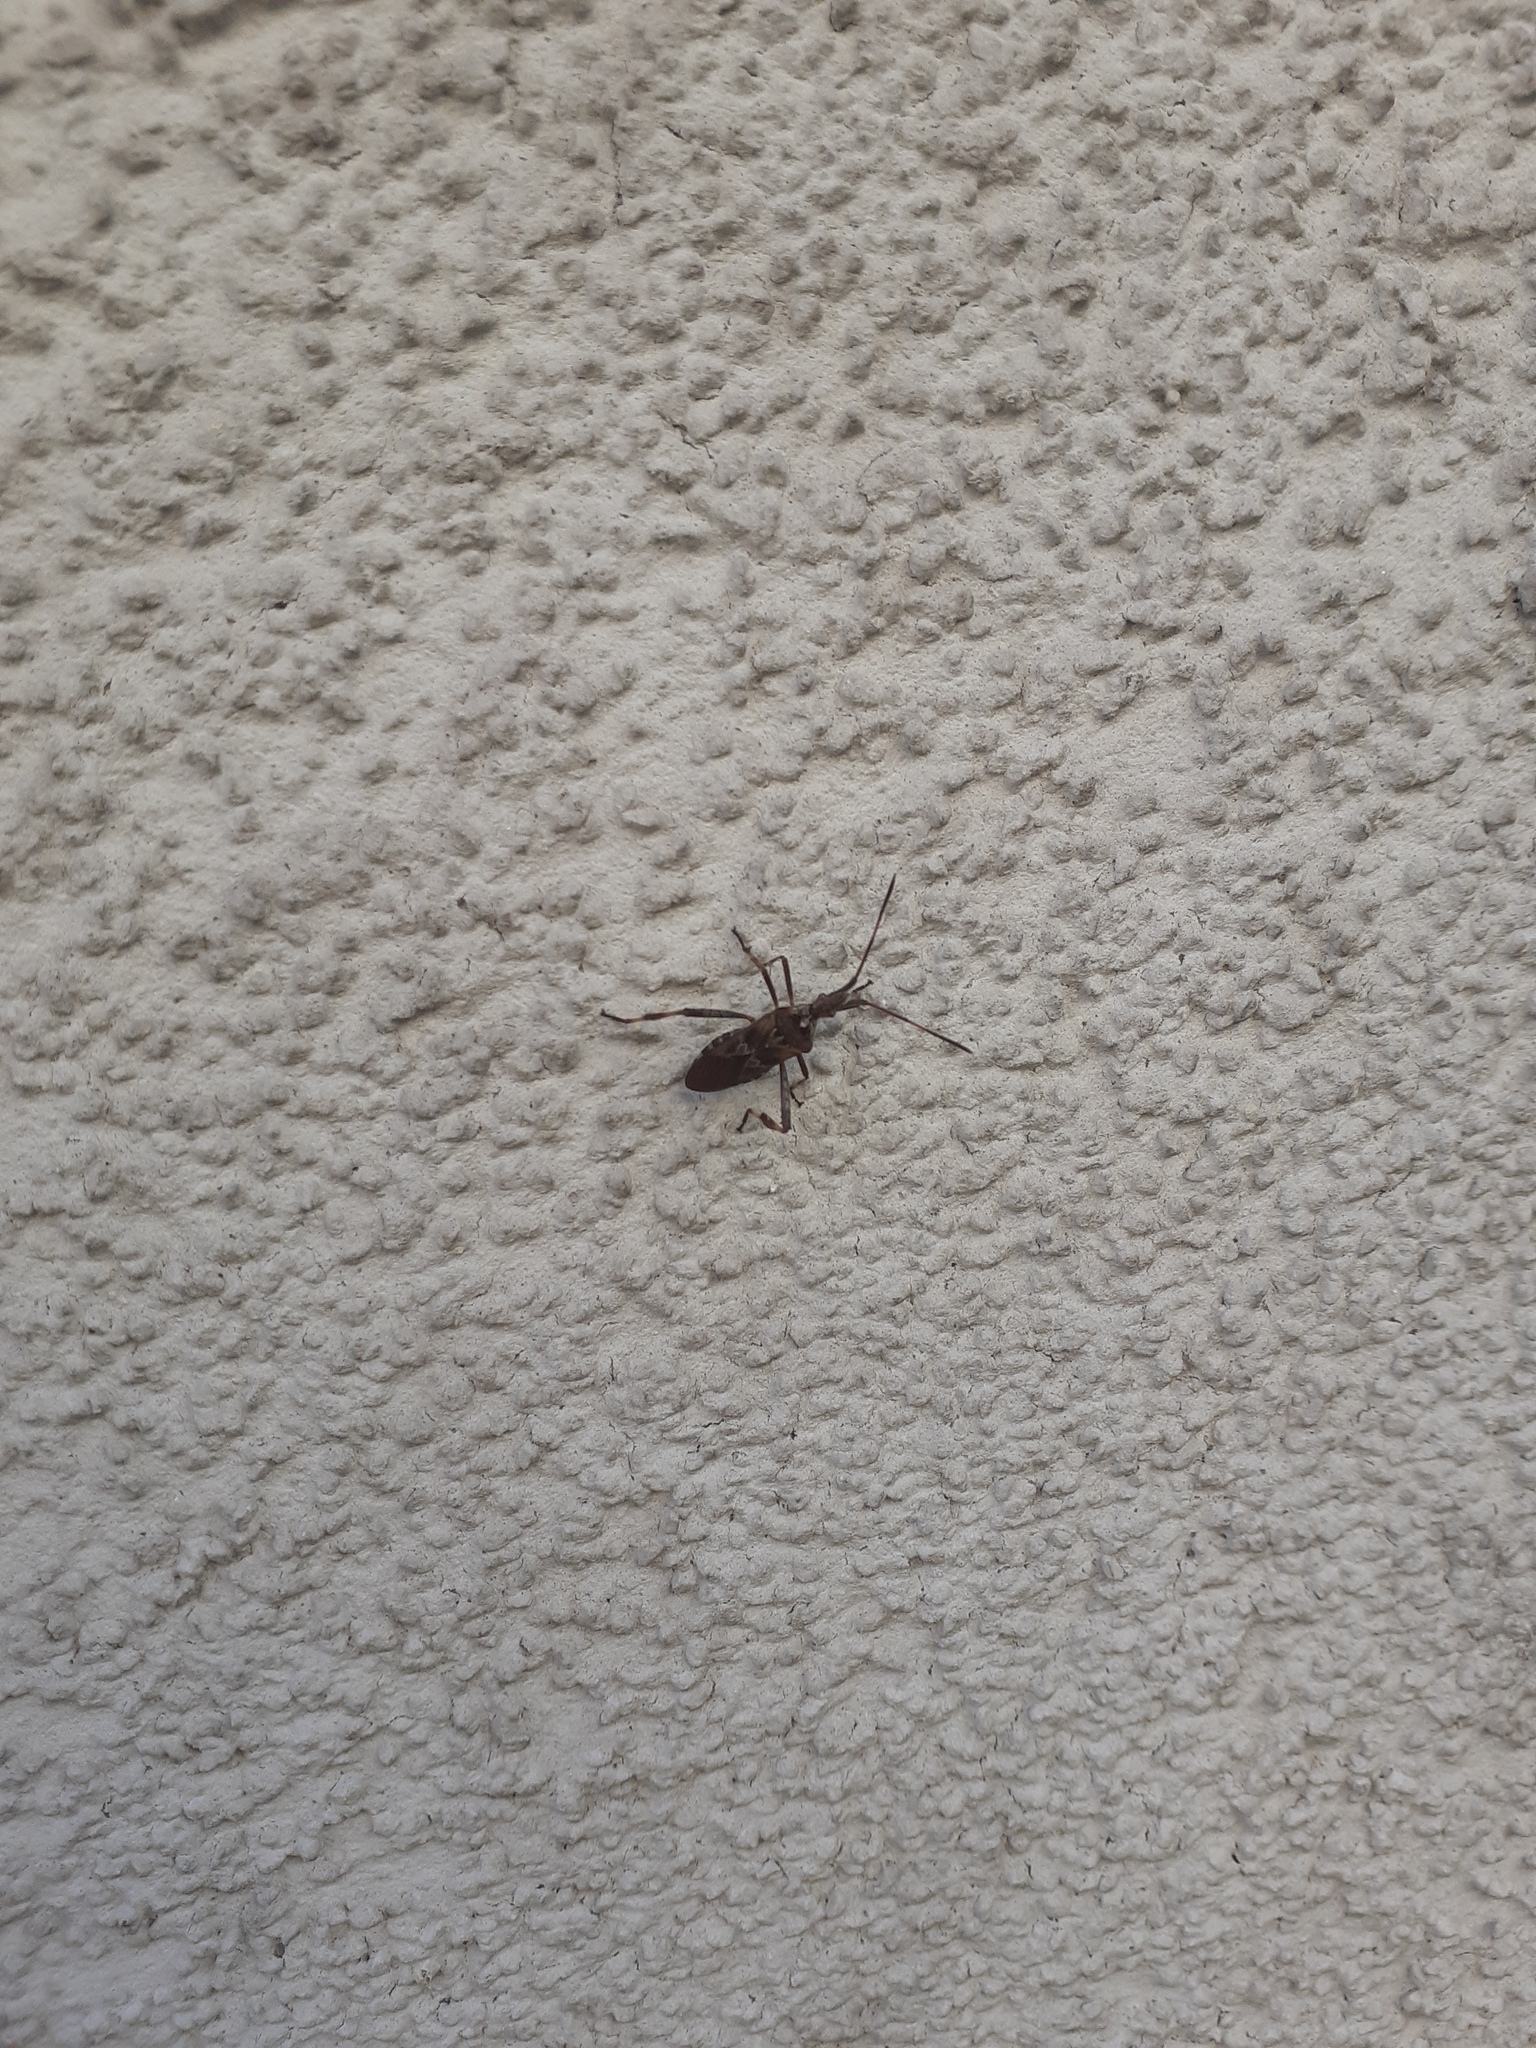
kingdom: Animalia
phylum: Arthropoda
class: Insecta
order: Hemiptera
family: Coreidae
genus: Leptoglossus
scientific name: Leptoglossus occidentalis
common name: Western conifer-seed bug
